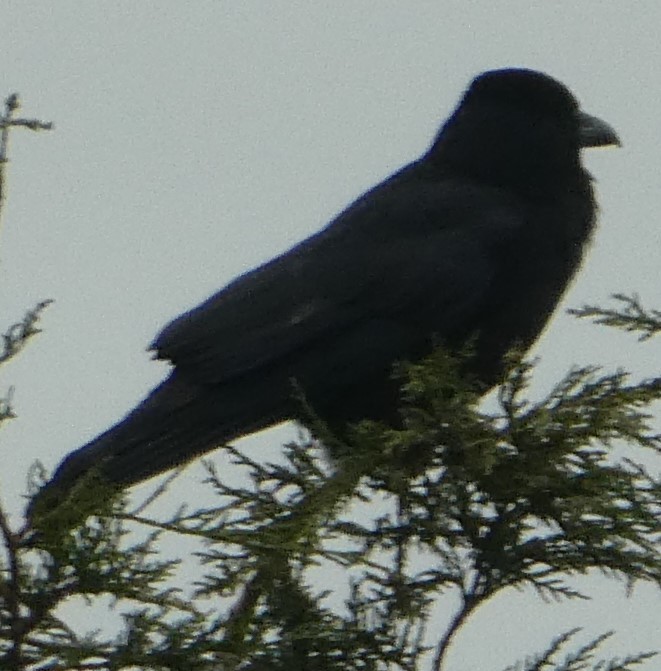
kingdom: Animalia
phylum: Chordata
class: Aves
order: Passeriformes
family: Corvidae
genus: Corvus
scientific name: Corvus corone
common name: Carrion crow
